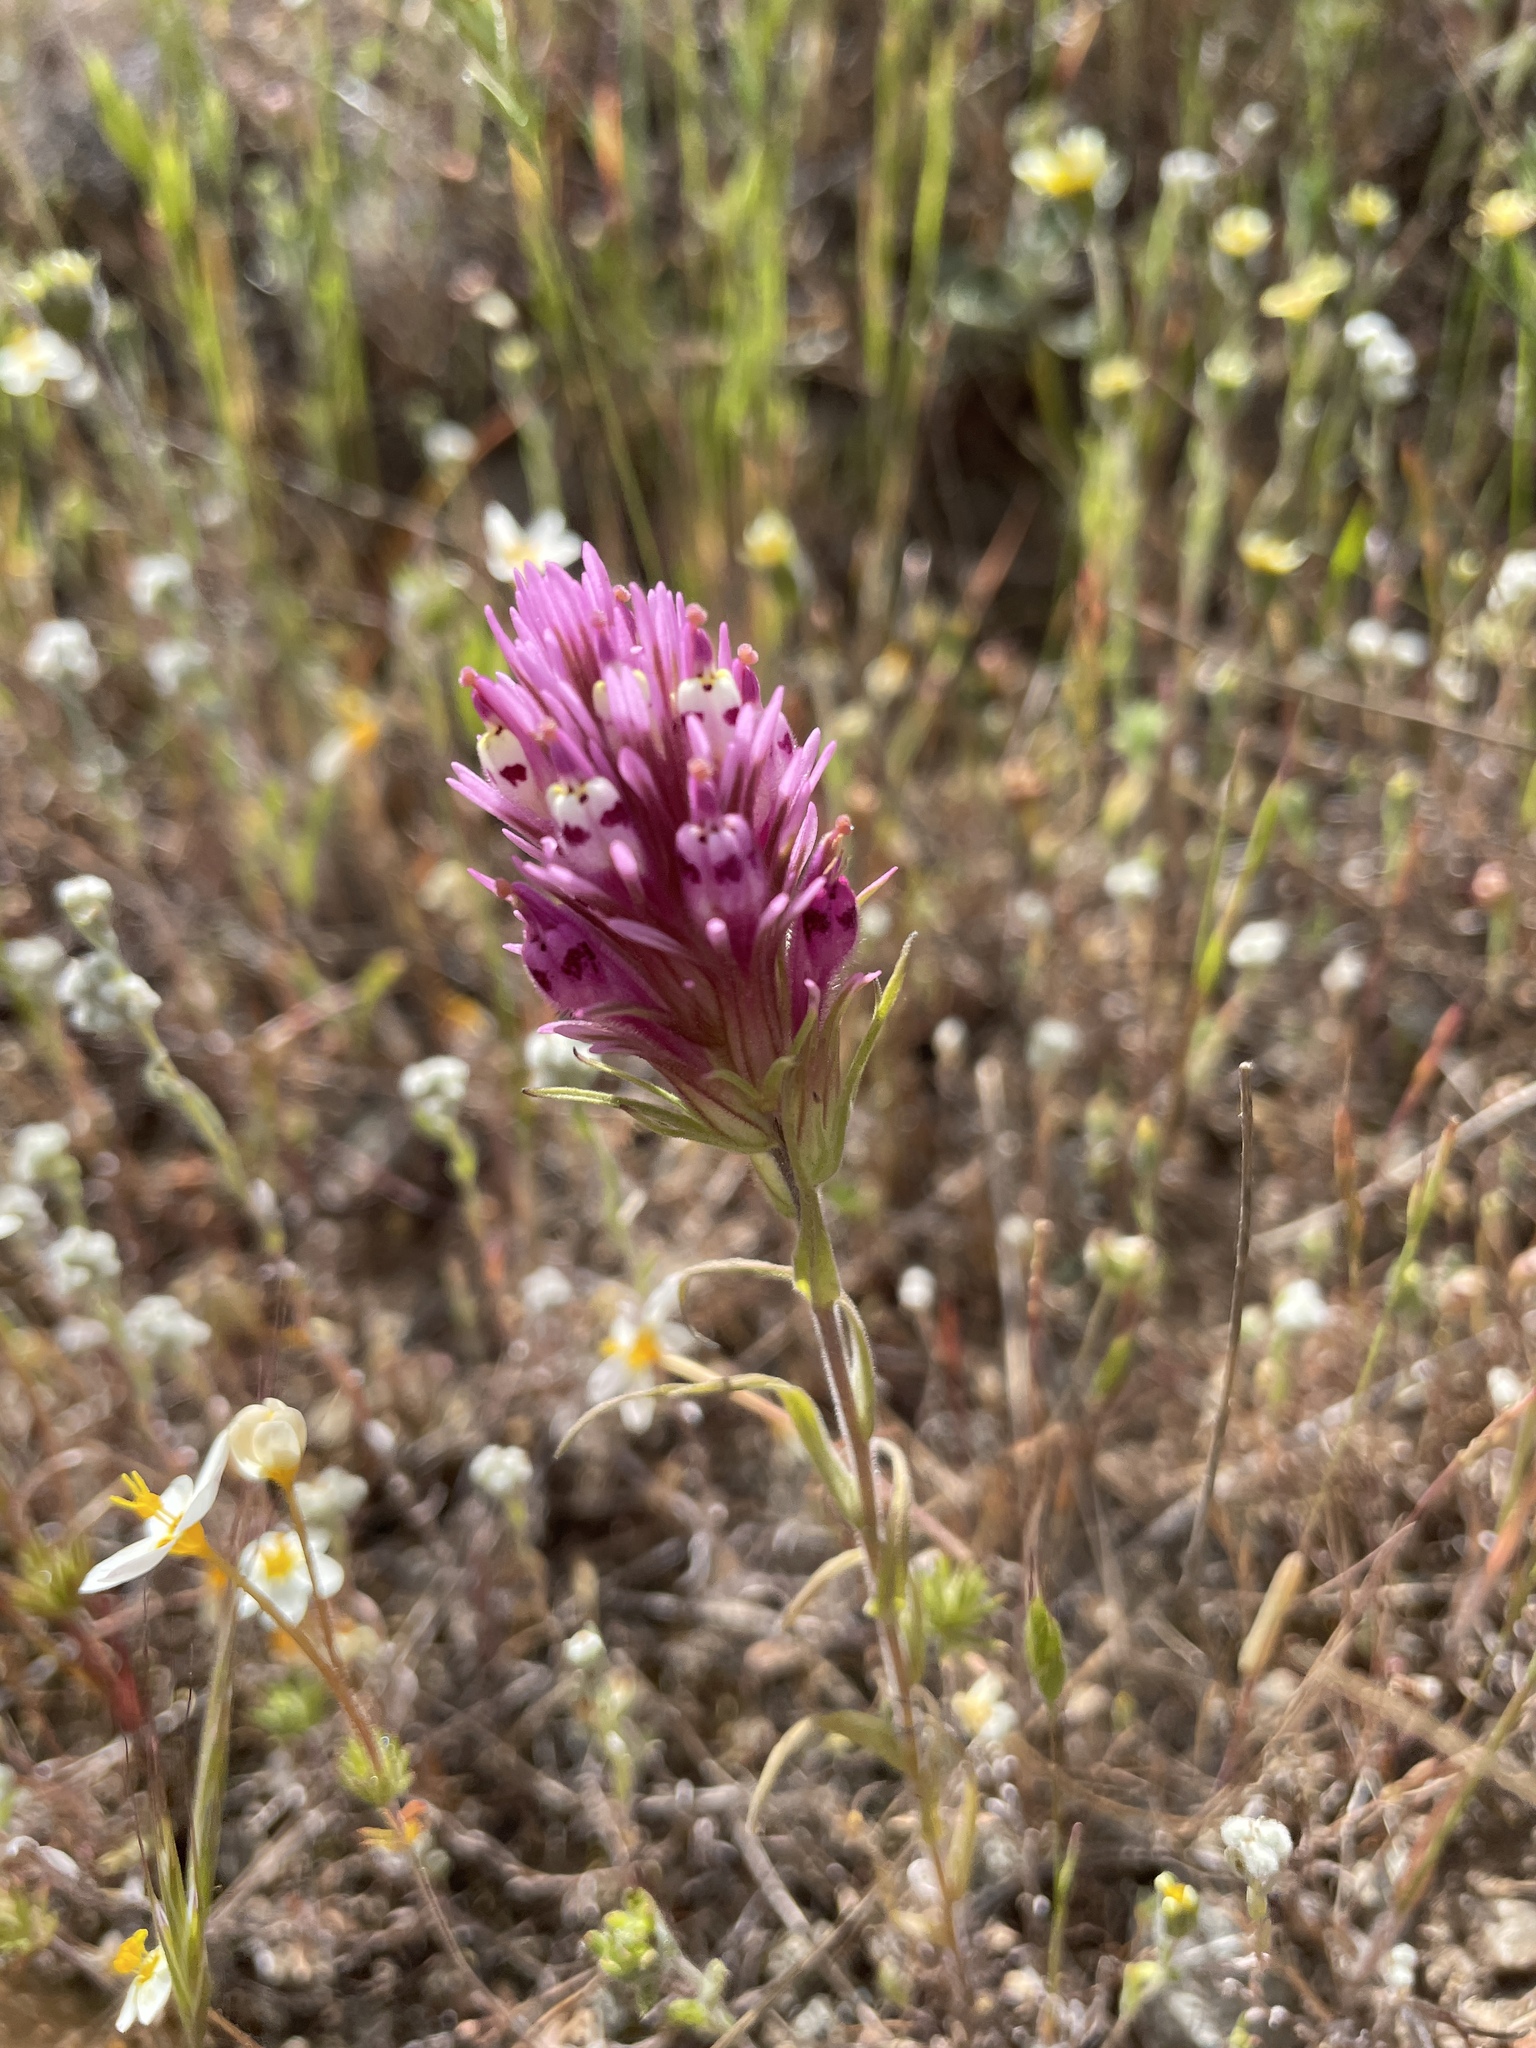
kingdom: Plantae
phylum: Tracheophyta
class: Magnoliopsida
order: Lamiales
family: Orobanchaceae
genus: Castilleja
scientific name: Castilleja densiflora
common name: Dense-flower indian paintbrush
